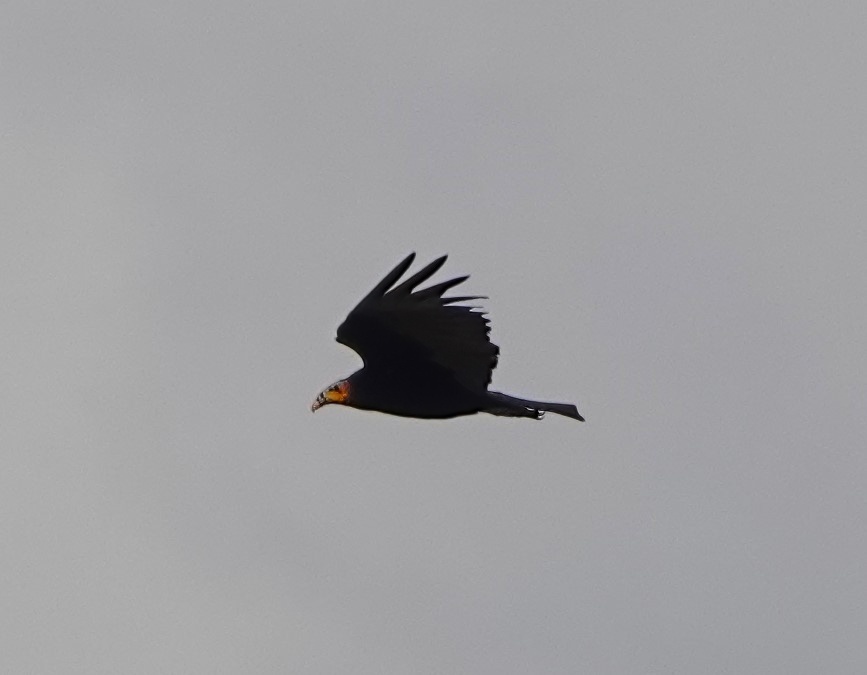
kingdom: Animalia
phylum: Chordata
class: Aves
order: Accipitriformes
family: Cathartidae
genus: Cathartes
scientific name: Cathartes burrovianus
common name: Lesser yellow-headed vulture
